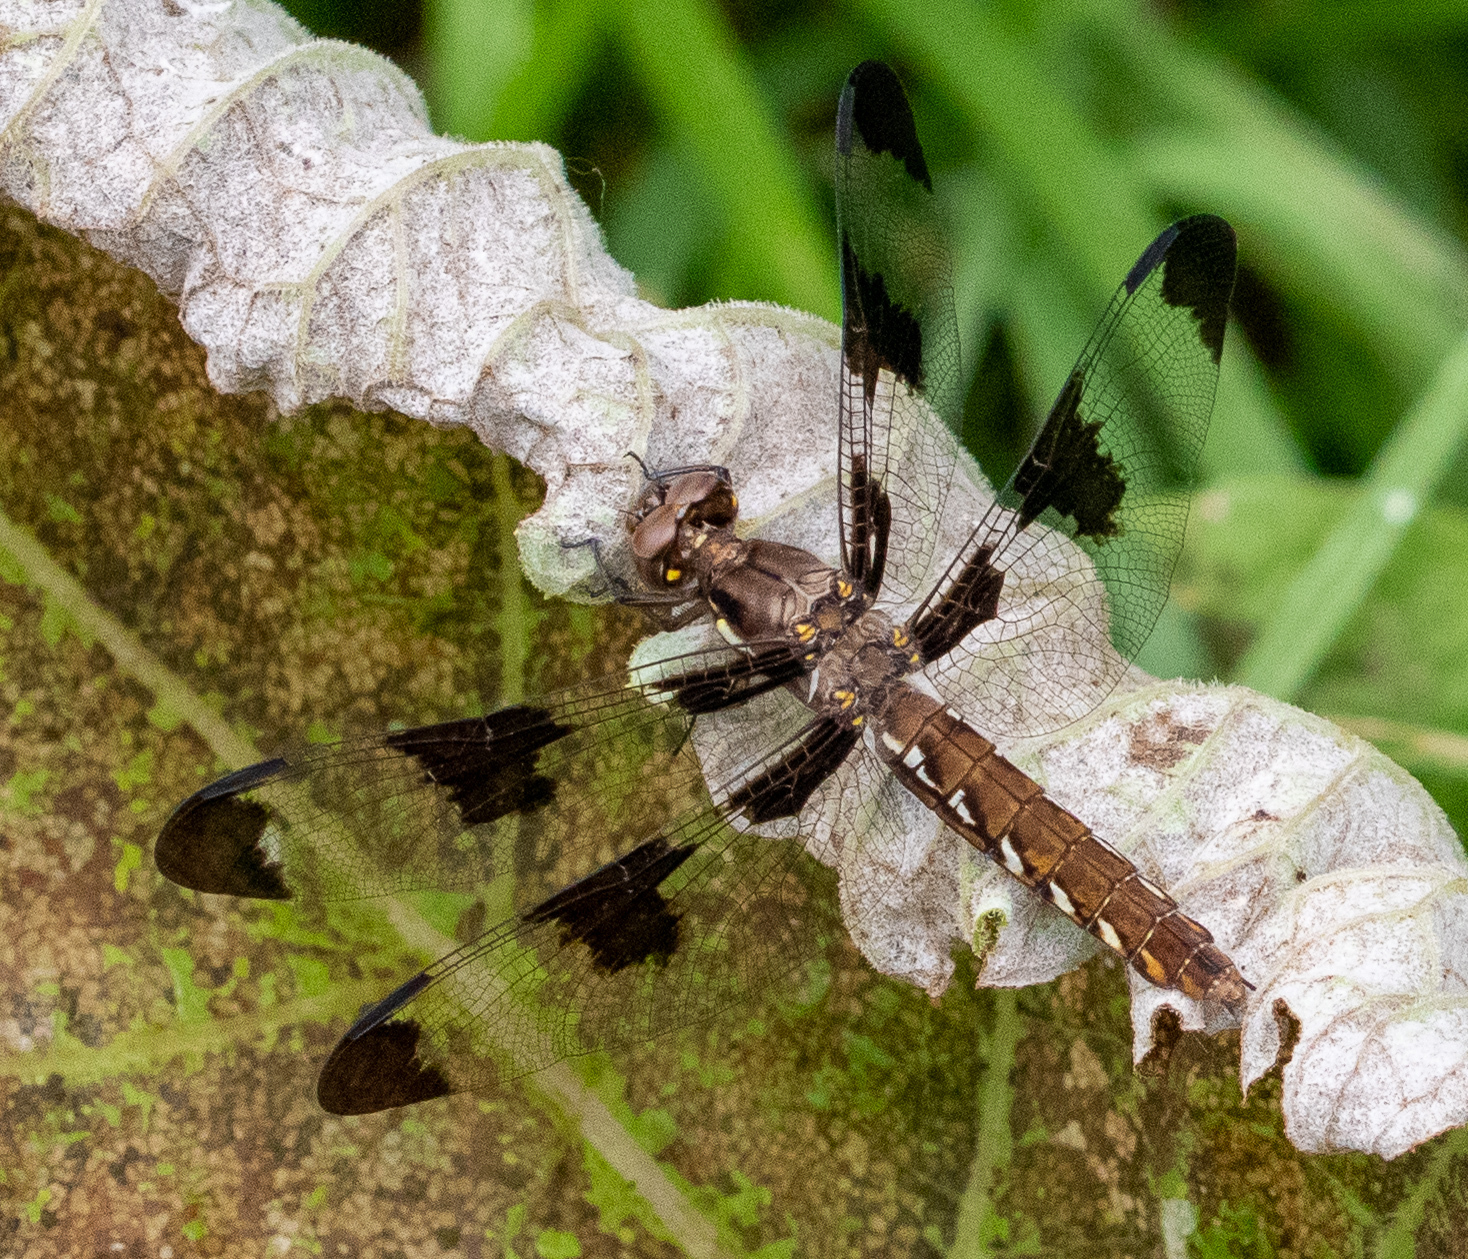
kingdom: Animalia
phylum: Arthropoda
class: Insecta
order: Odonata
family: Libellulidae
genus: Plathemis
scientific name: Plathemis lydia
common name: Common whitetail
